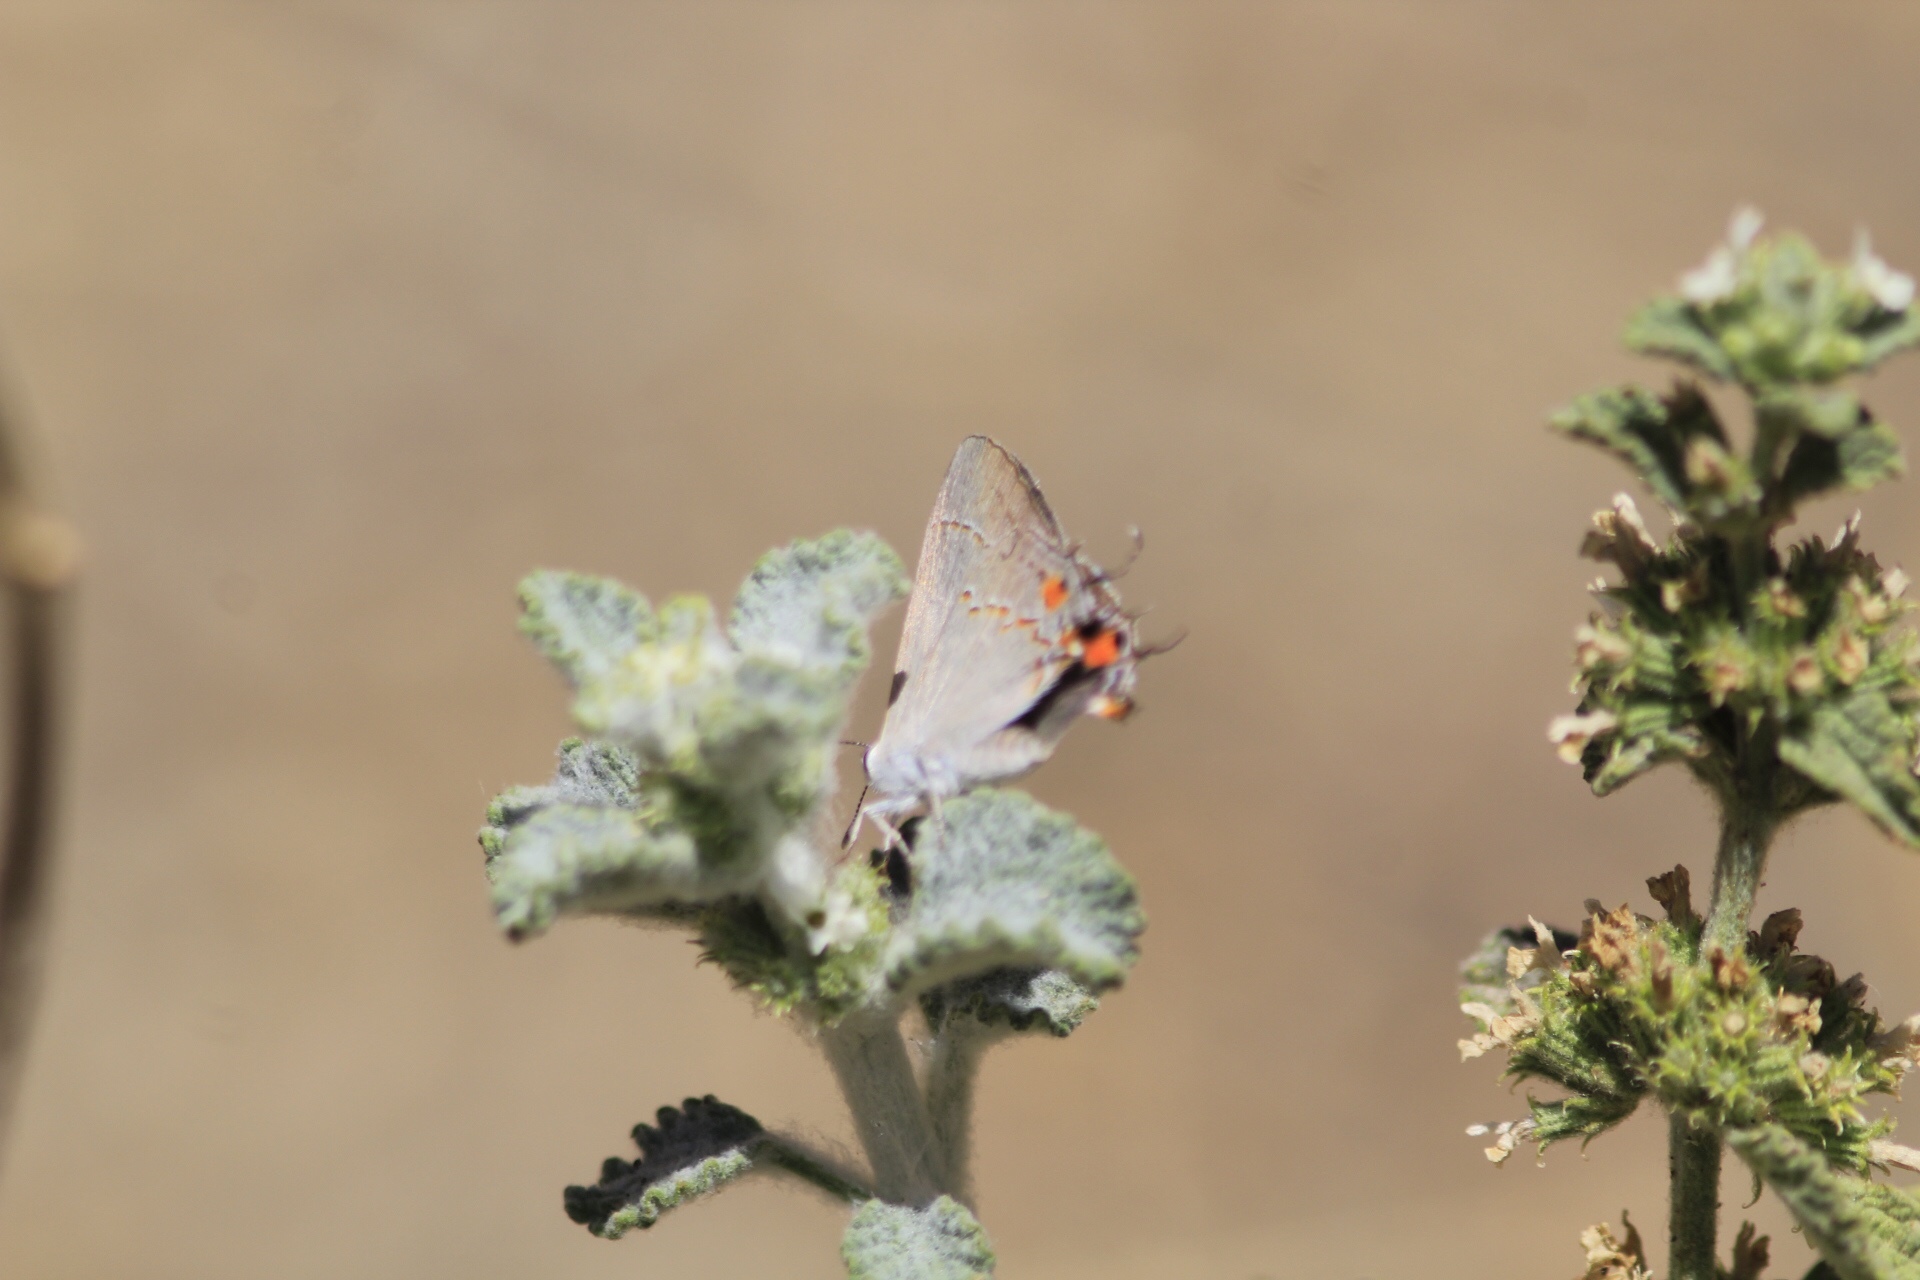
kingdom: Animalia
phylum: Arthropoda
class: Insecta
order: Lepidoptera
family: Lycaenidae
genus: Strymon
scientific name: Strymon melinus
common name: Gray hairstreak
